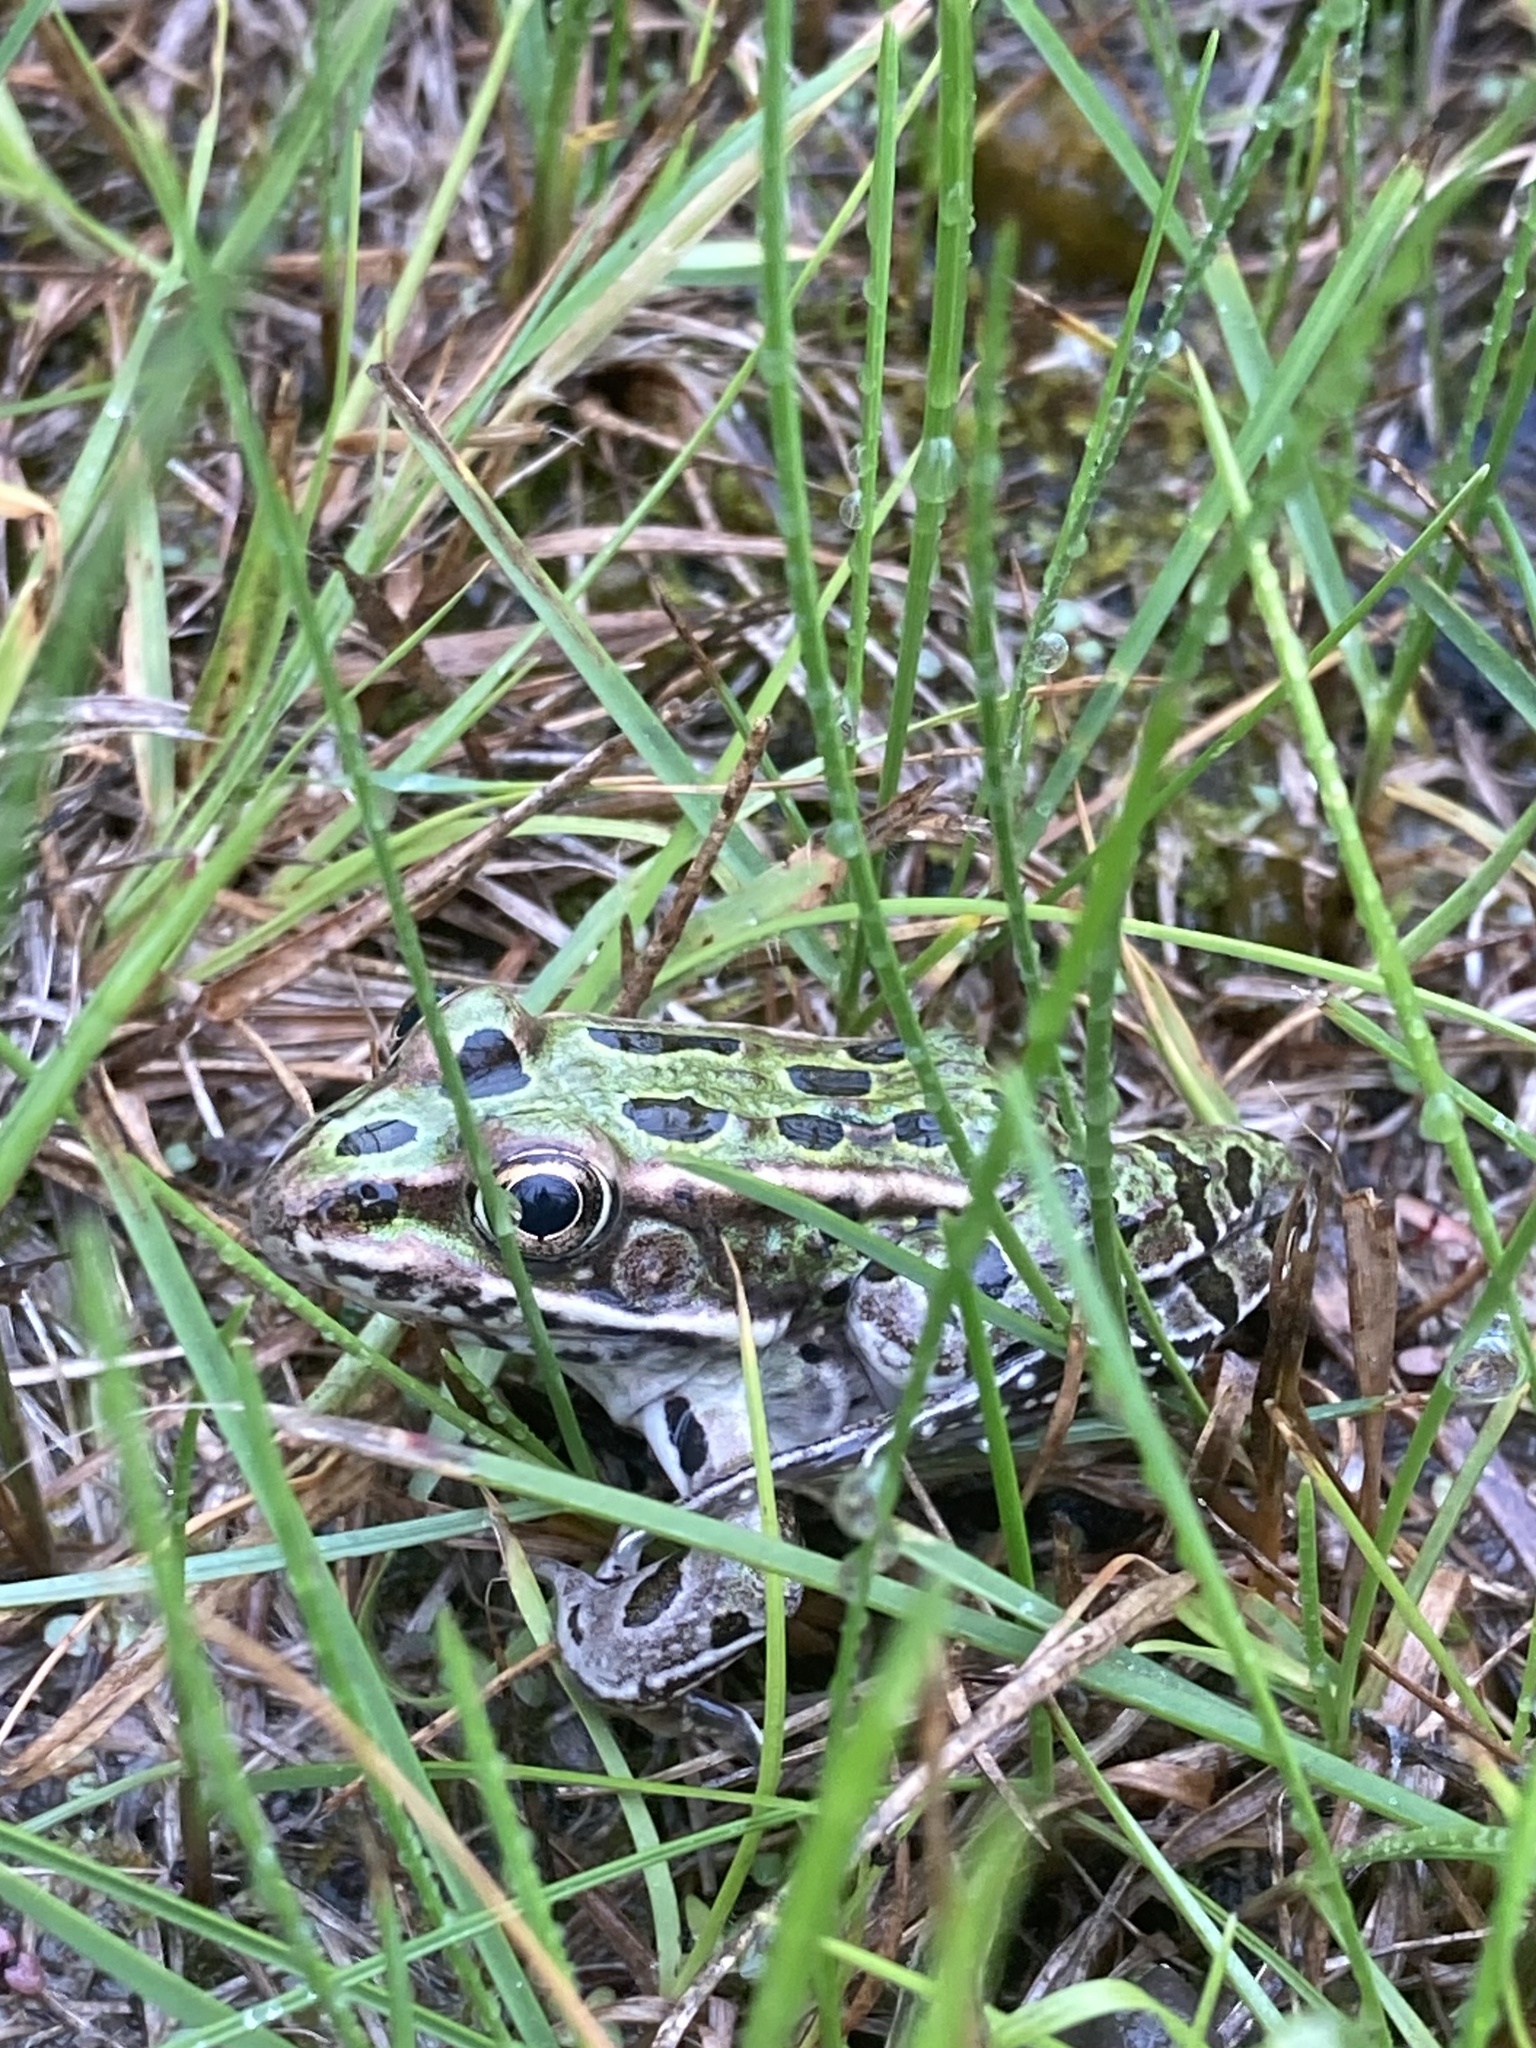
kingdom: Animalia
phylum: Chordata
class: Amphibia
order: Anura
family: Ranidae
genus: Lithobates
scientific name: Lithobates pipiens
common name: Northern leopard frog
